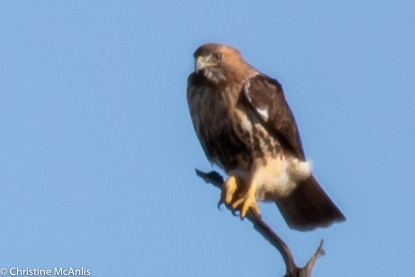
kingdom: Animalia
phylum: Chordata
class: Aves
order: Accipitriformes
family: Accipitridae
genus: Buteo
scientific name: Buteo jamaicensis
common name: Red-tailed hawk
